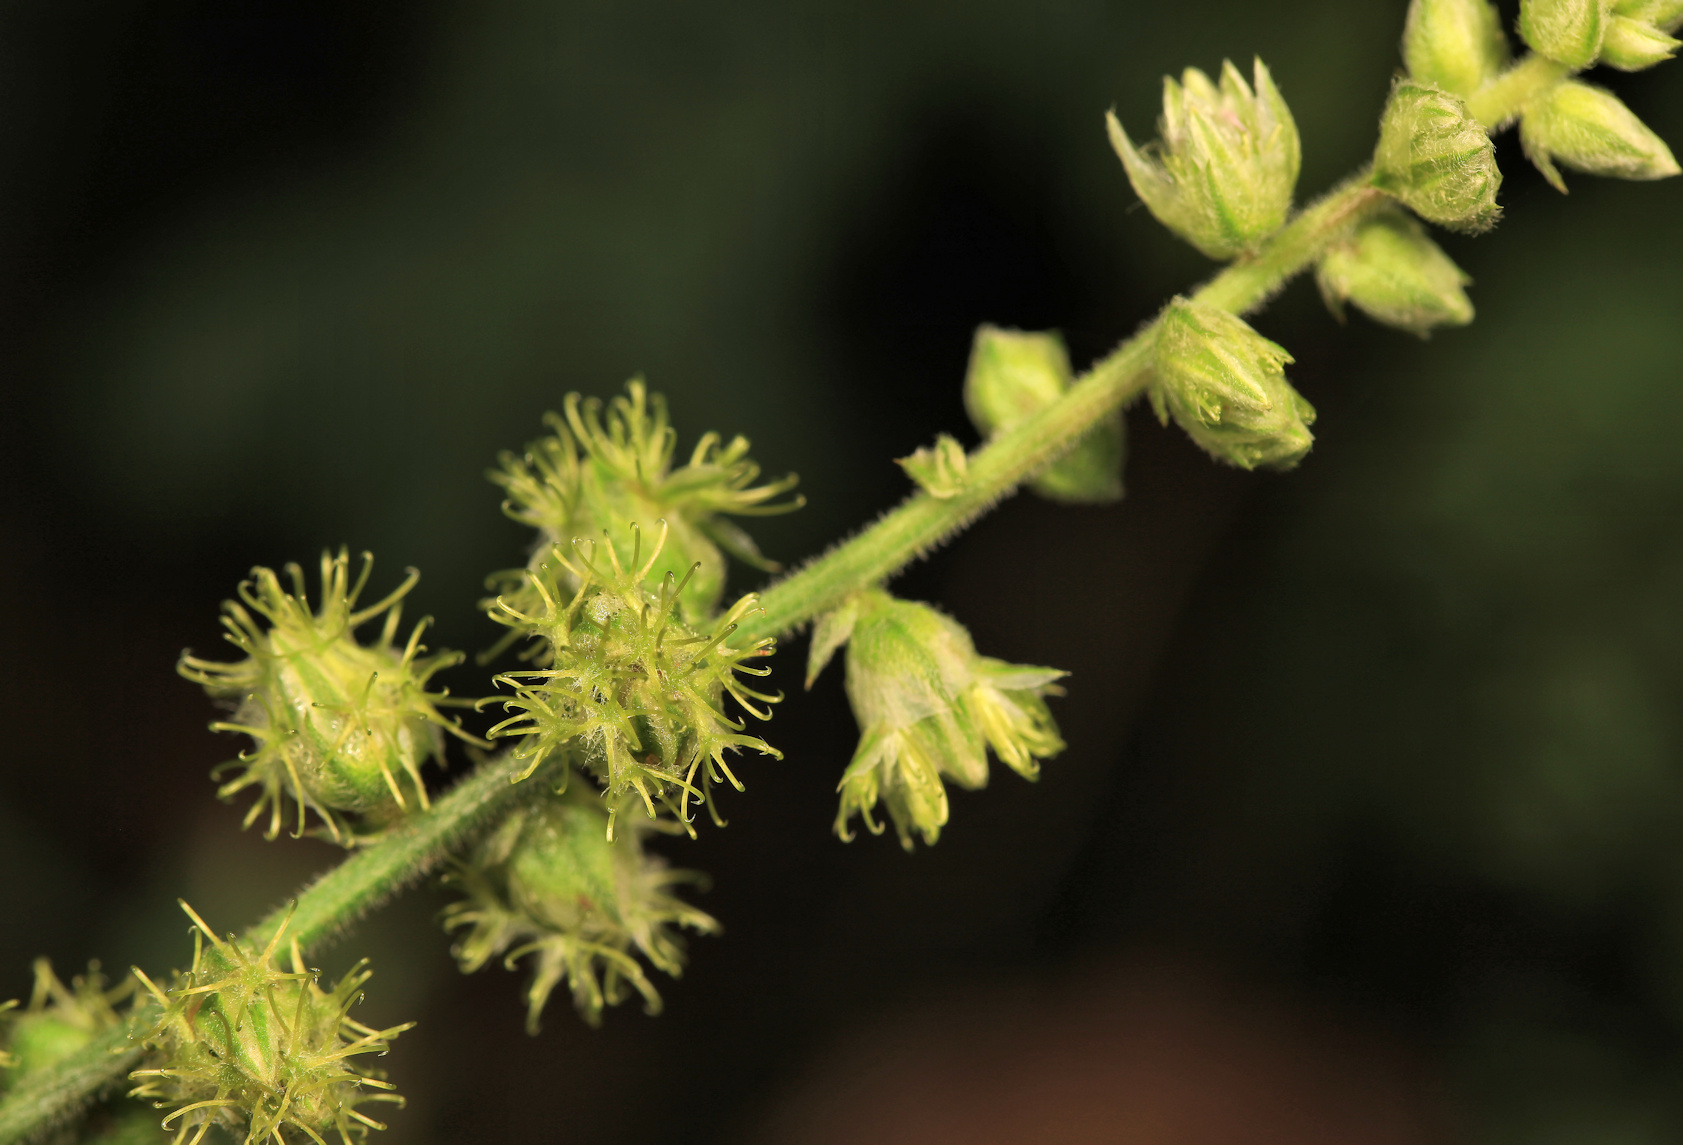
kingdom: Plantae
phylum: Tracheophyta
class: Magnoliopsida
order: Caryophyllales
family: Amaranthaceae
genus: Pupalia
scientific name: Pupalia lappacea
